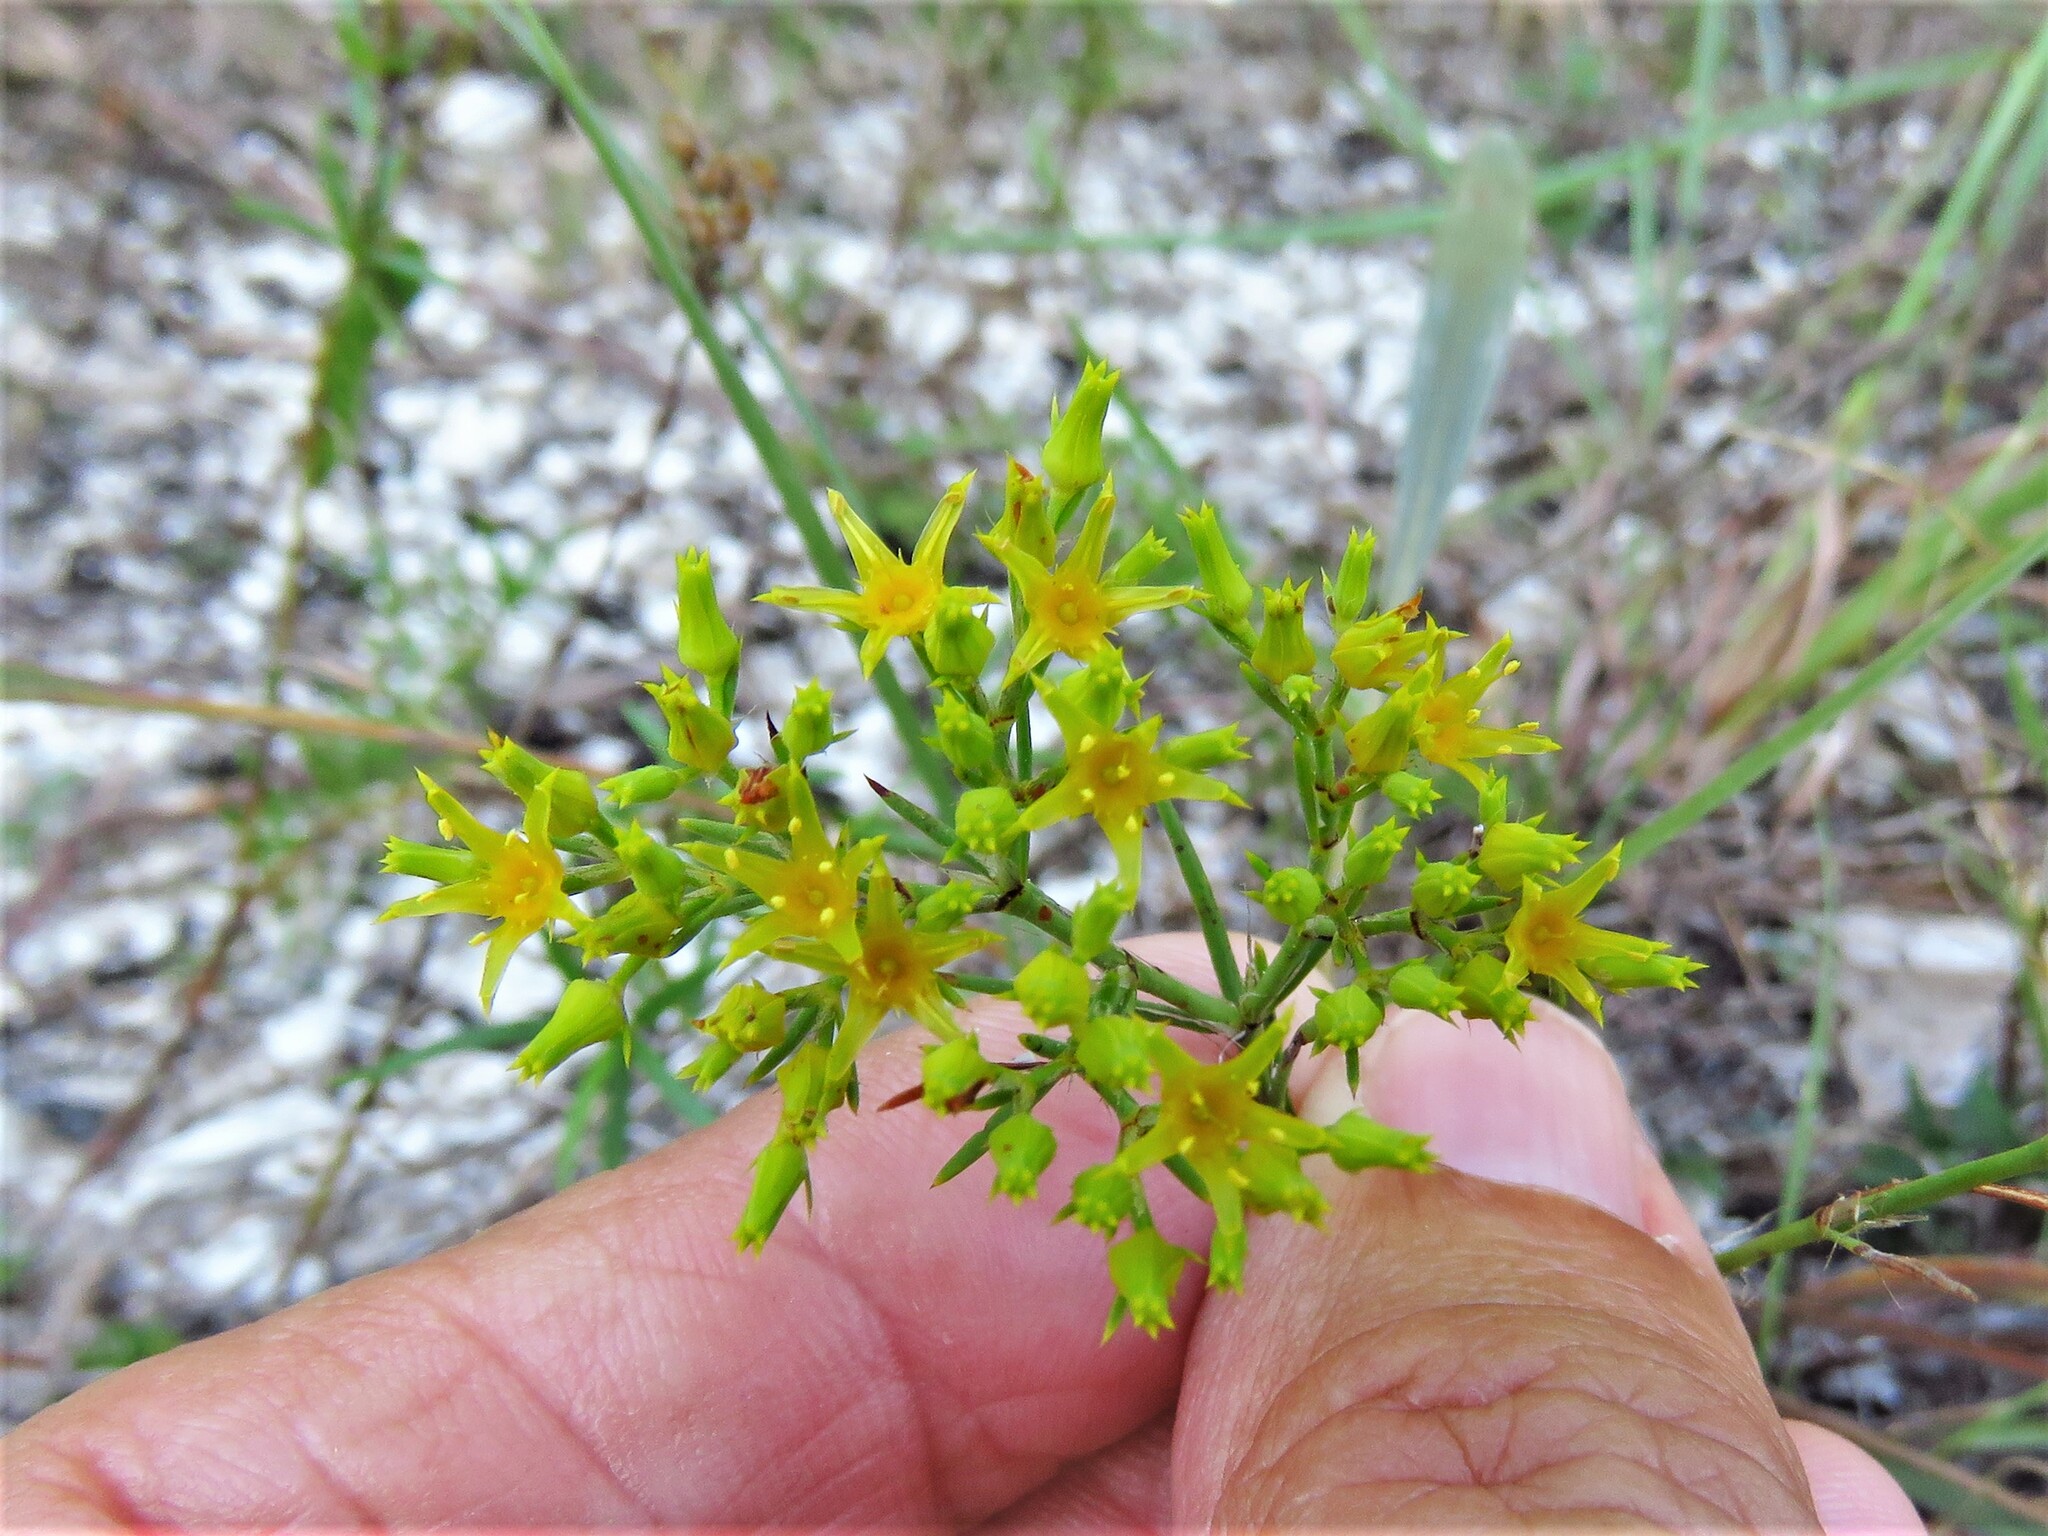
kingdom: Plantae
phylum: Tracheophyta
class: Magnoliopsida
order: Caryophyllales
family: Caryophyllaceae
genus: Paronychia
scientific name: Paronychia virginica
